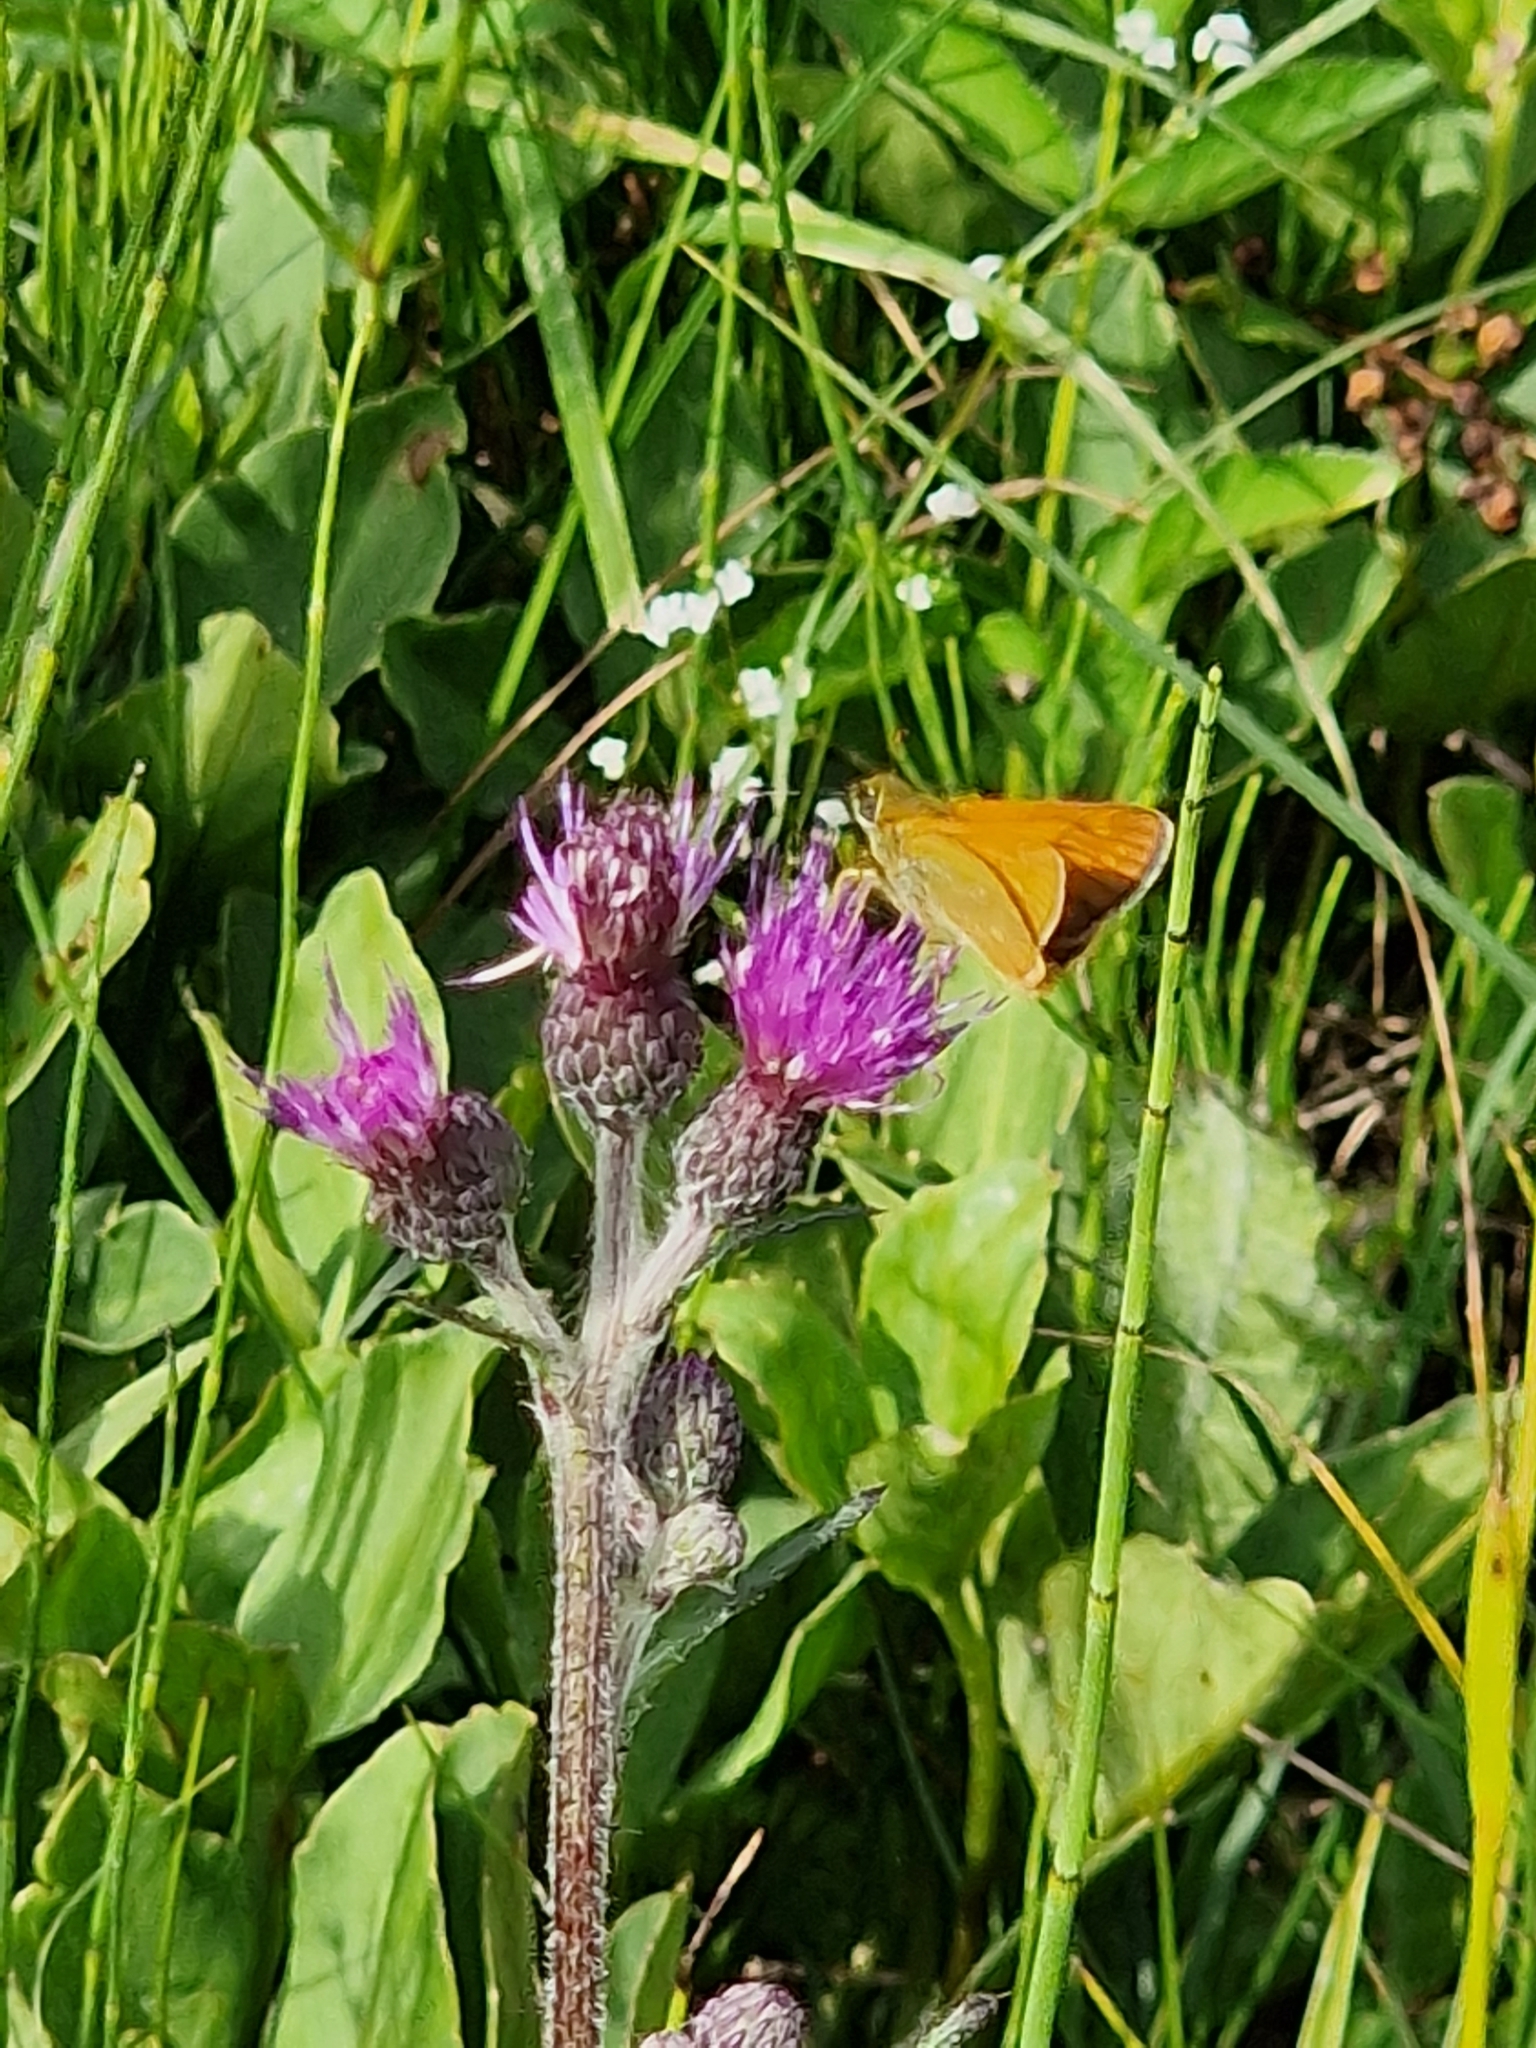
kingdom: Animalia
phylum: Arthropoda
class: Insecta
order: Lepidoptera
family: Hesperiidae
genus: Ochlodes
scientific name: Ochlodes venata
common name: Large skipper
